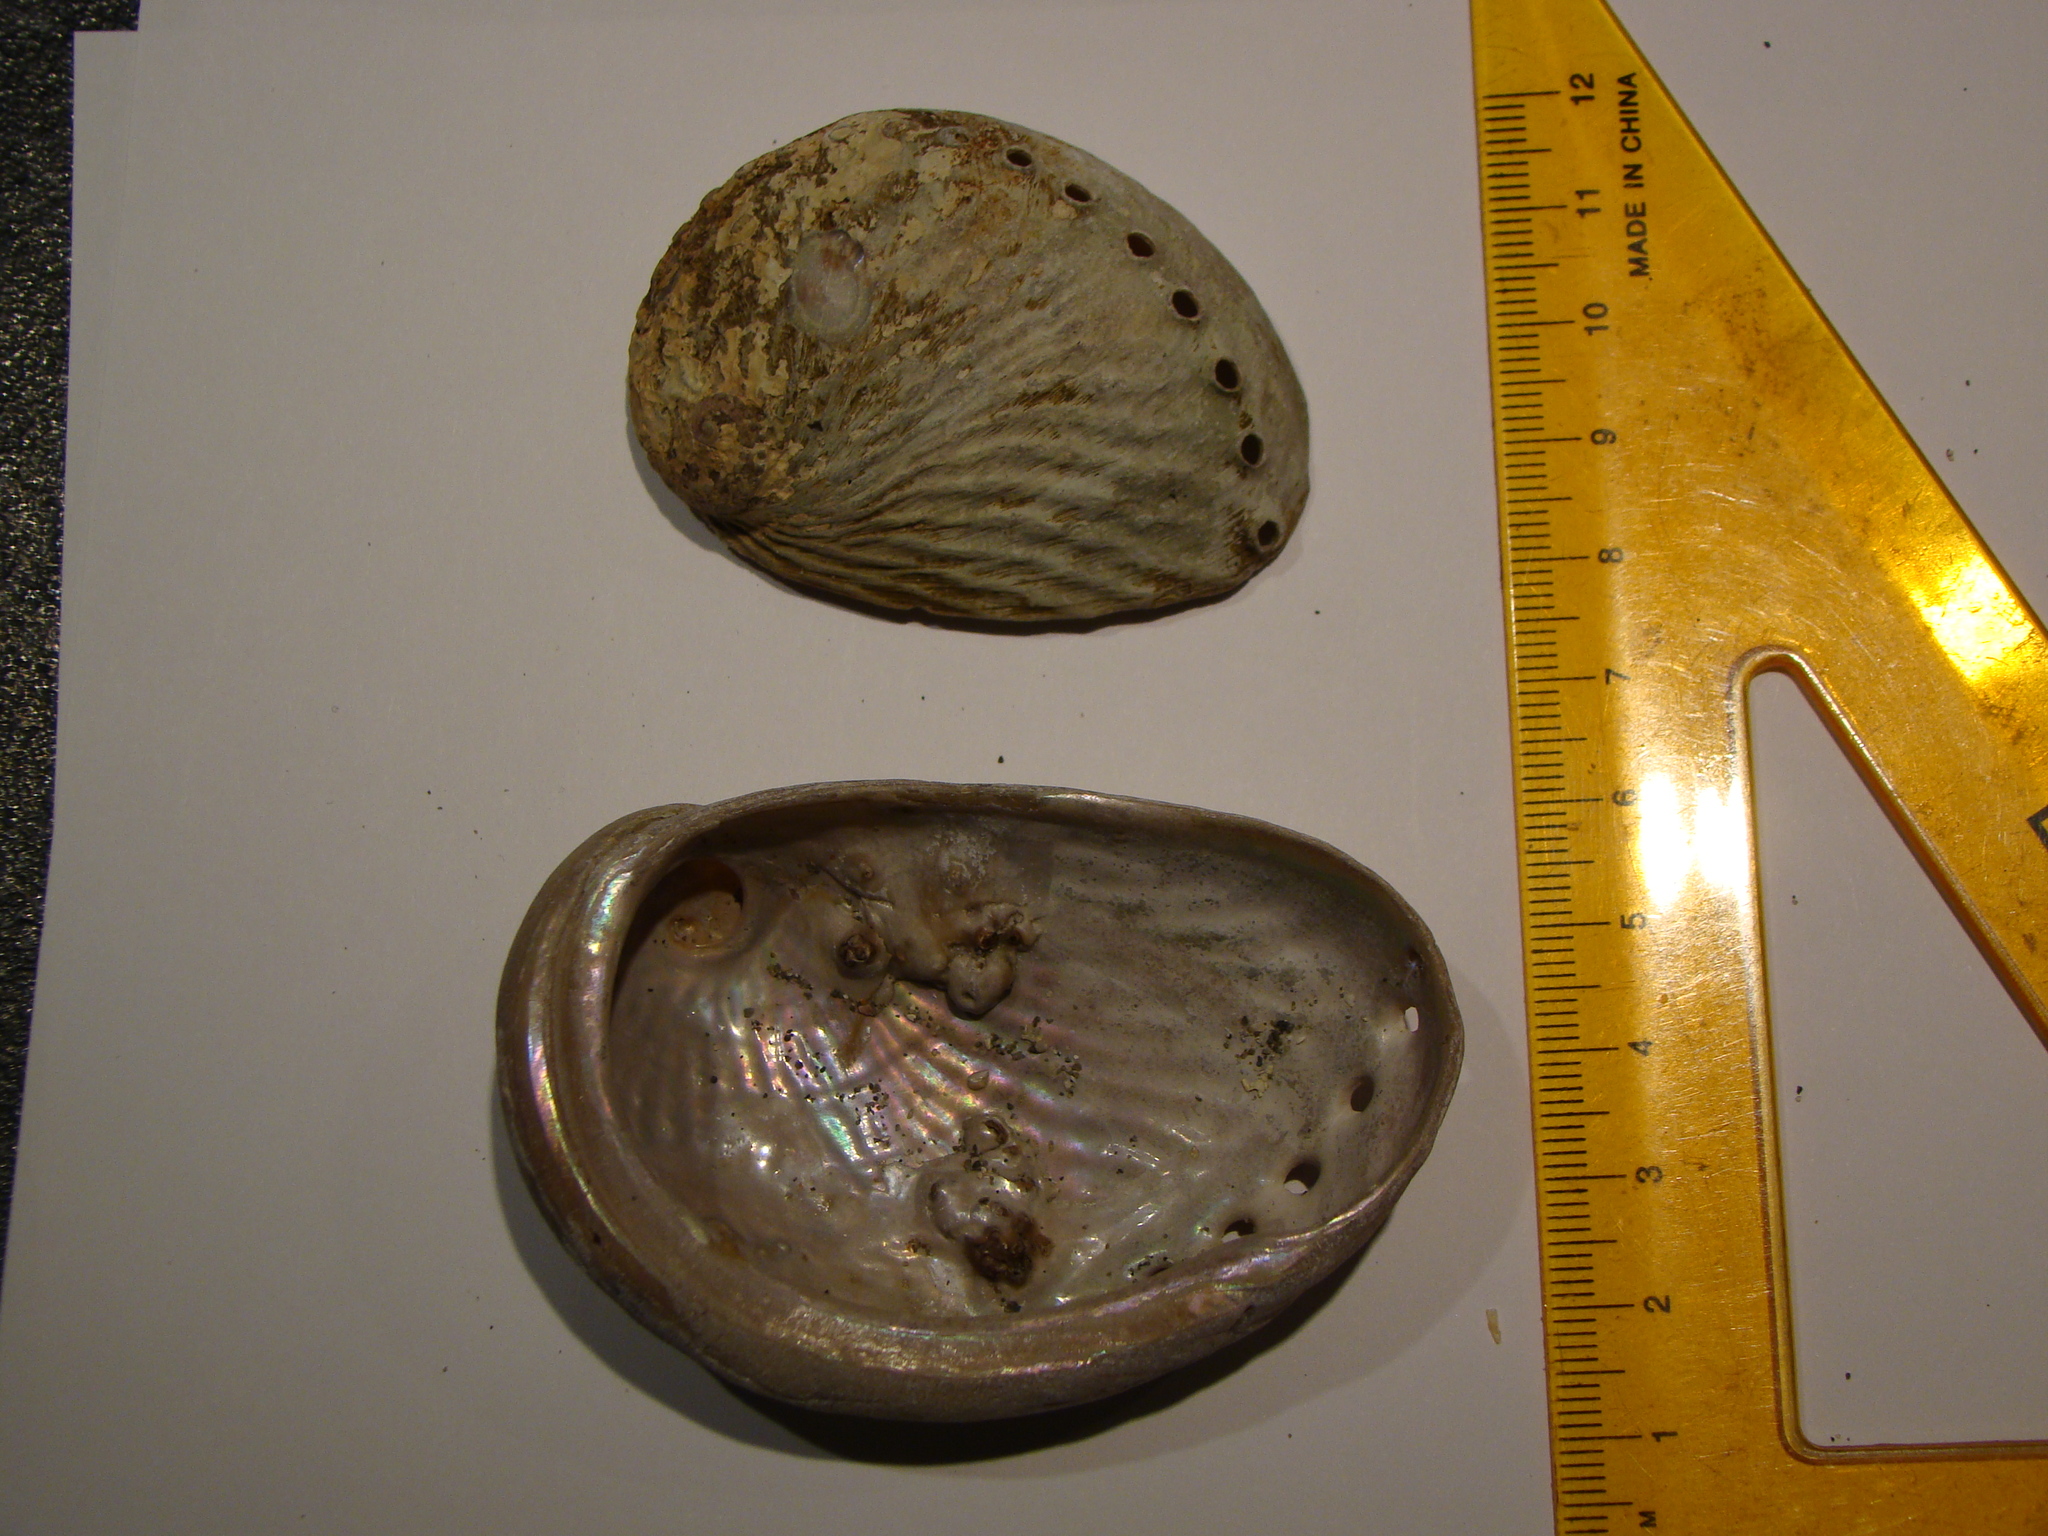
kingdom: Animalia
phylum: Mollusca
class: Gastropoda
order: Lepetellida
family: Haliotidae
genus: Haliotis
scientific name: Haliotis australis
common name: Silver abalone
